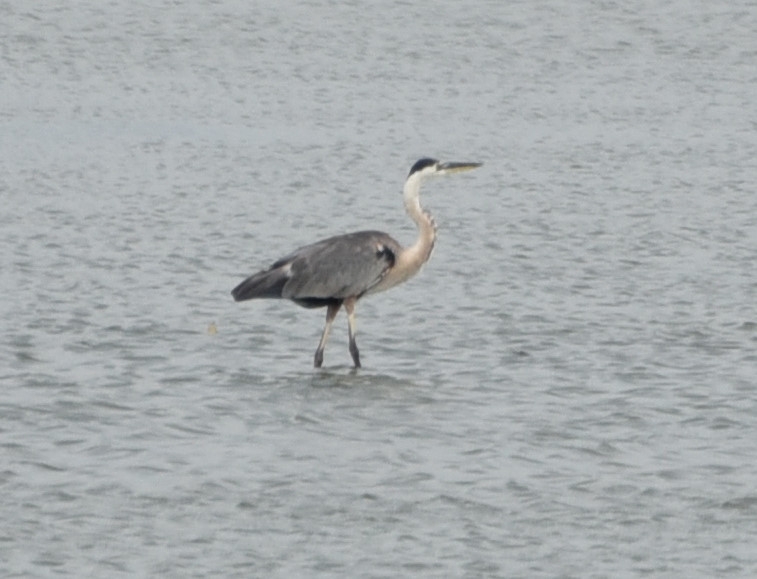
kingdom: Animalia
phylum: Chordata
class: Aves
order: Pelecaniformes
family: Ardeidae
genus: Ardea
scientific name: Ardea herodias
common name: Great blue heron
